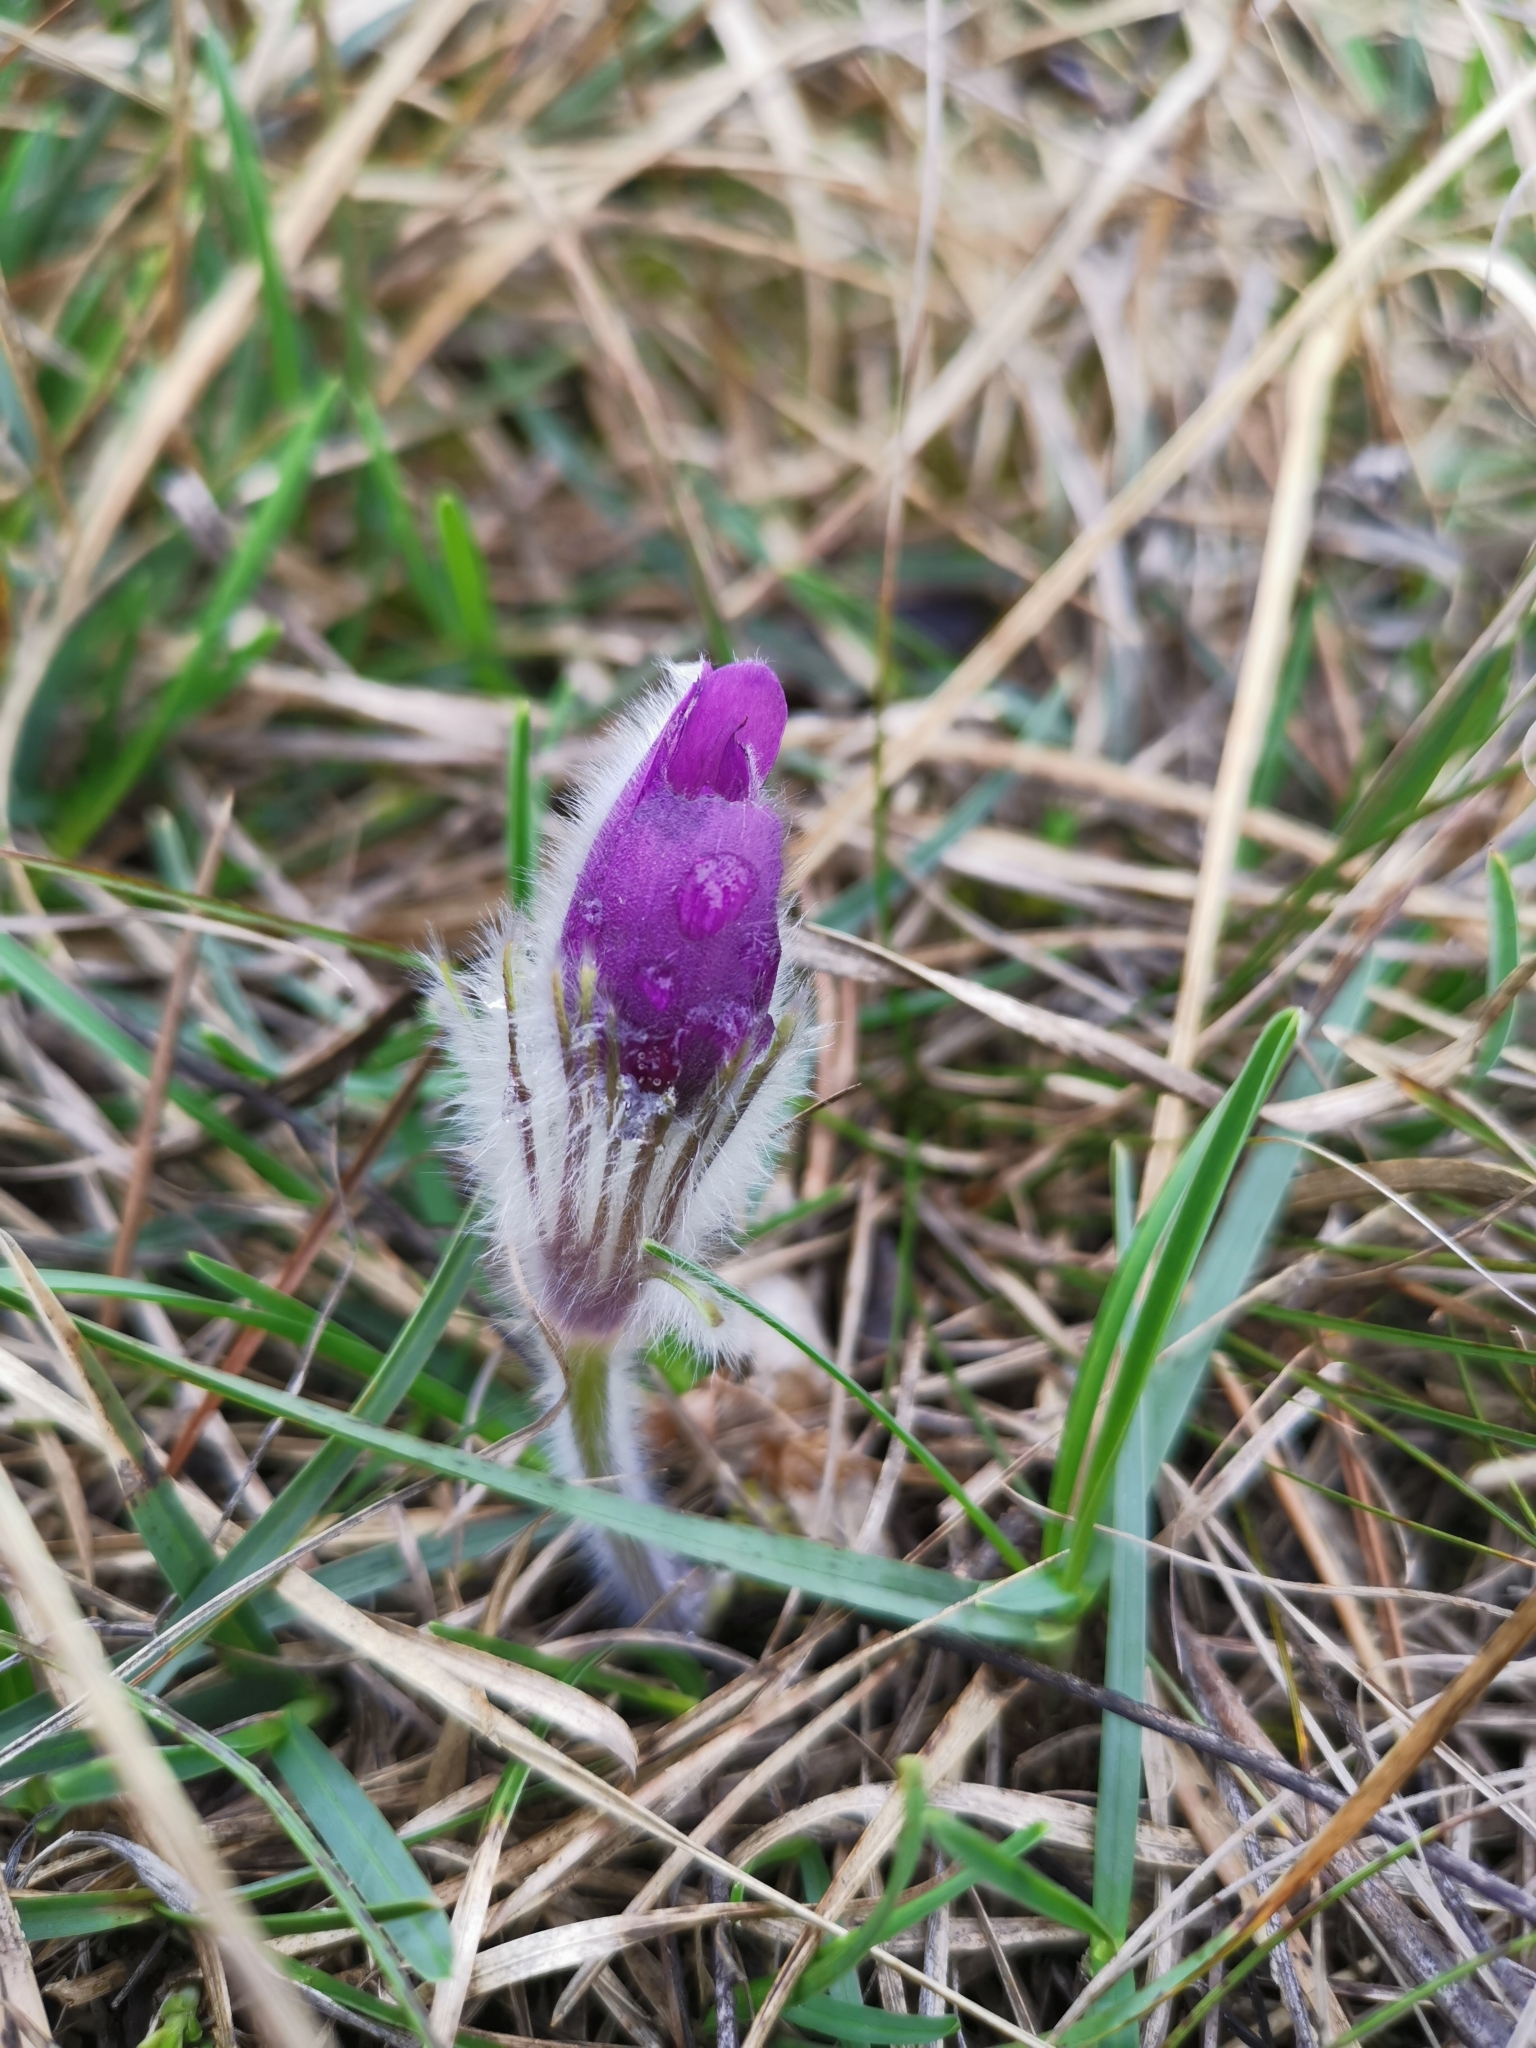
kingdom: Plantae
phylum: Tracheophyta
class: Magnoliopsida
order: Ranunculales
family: Ranunculaceae
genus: Pulsatilla
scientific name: Pulsatilla grandis
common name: Greater pasque flower
